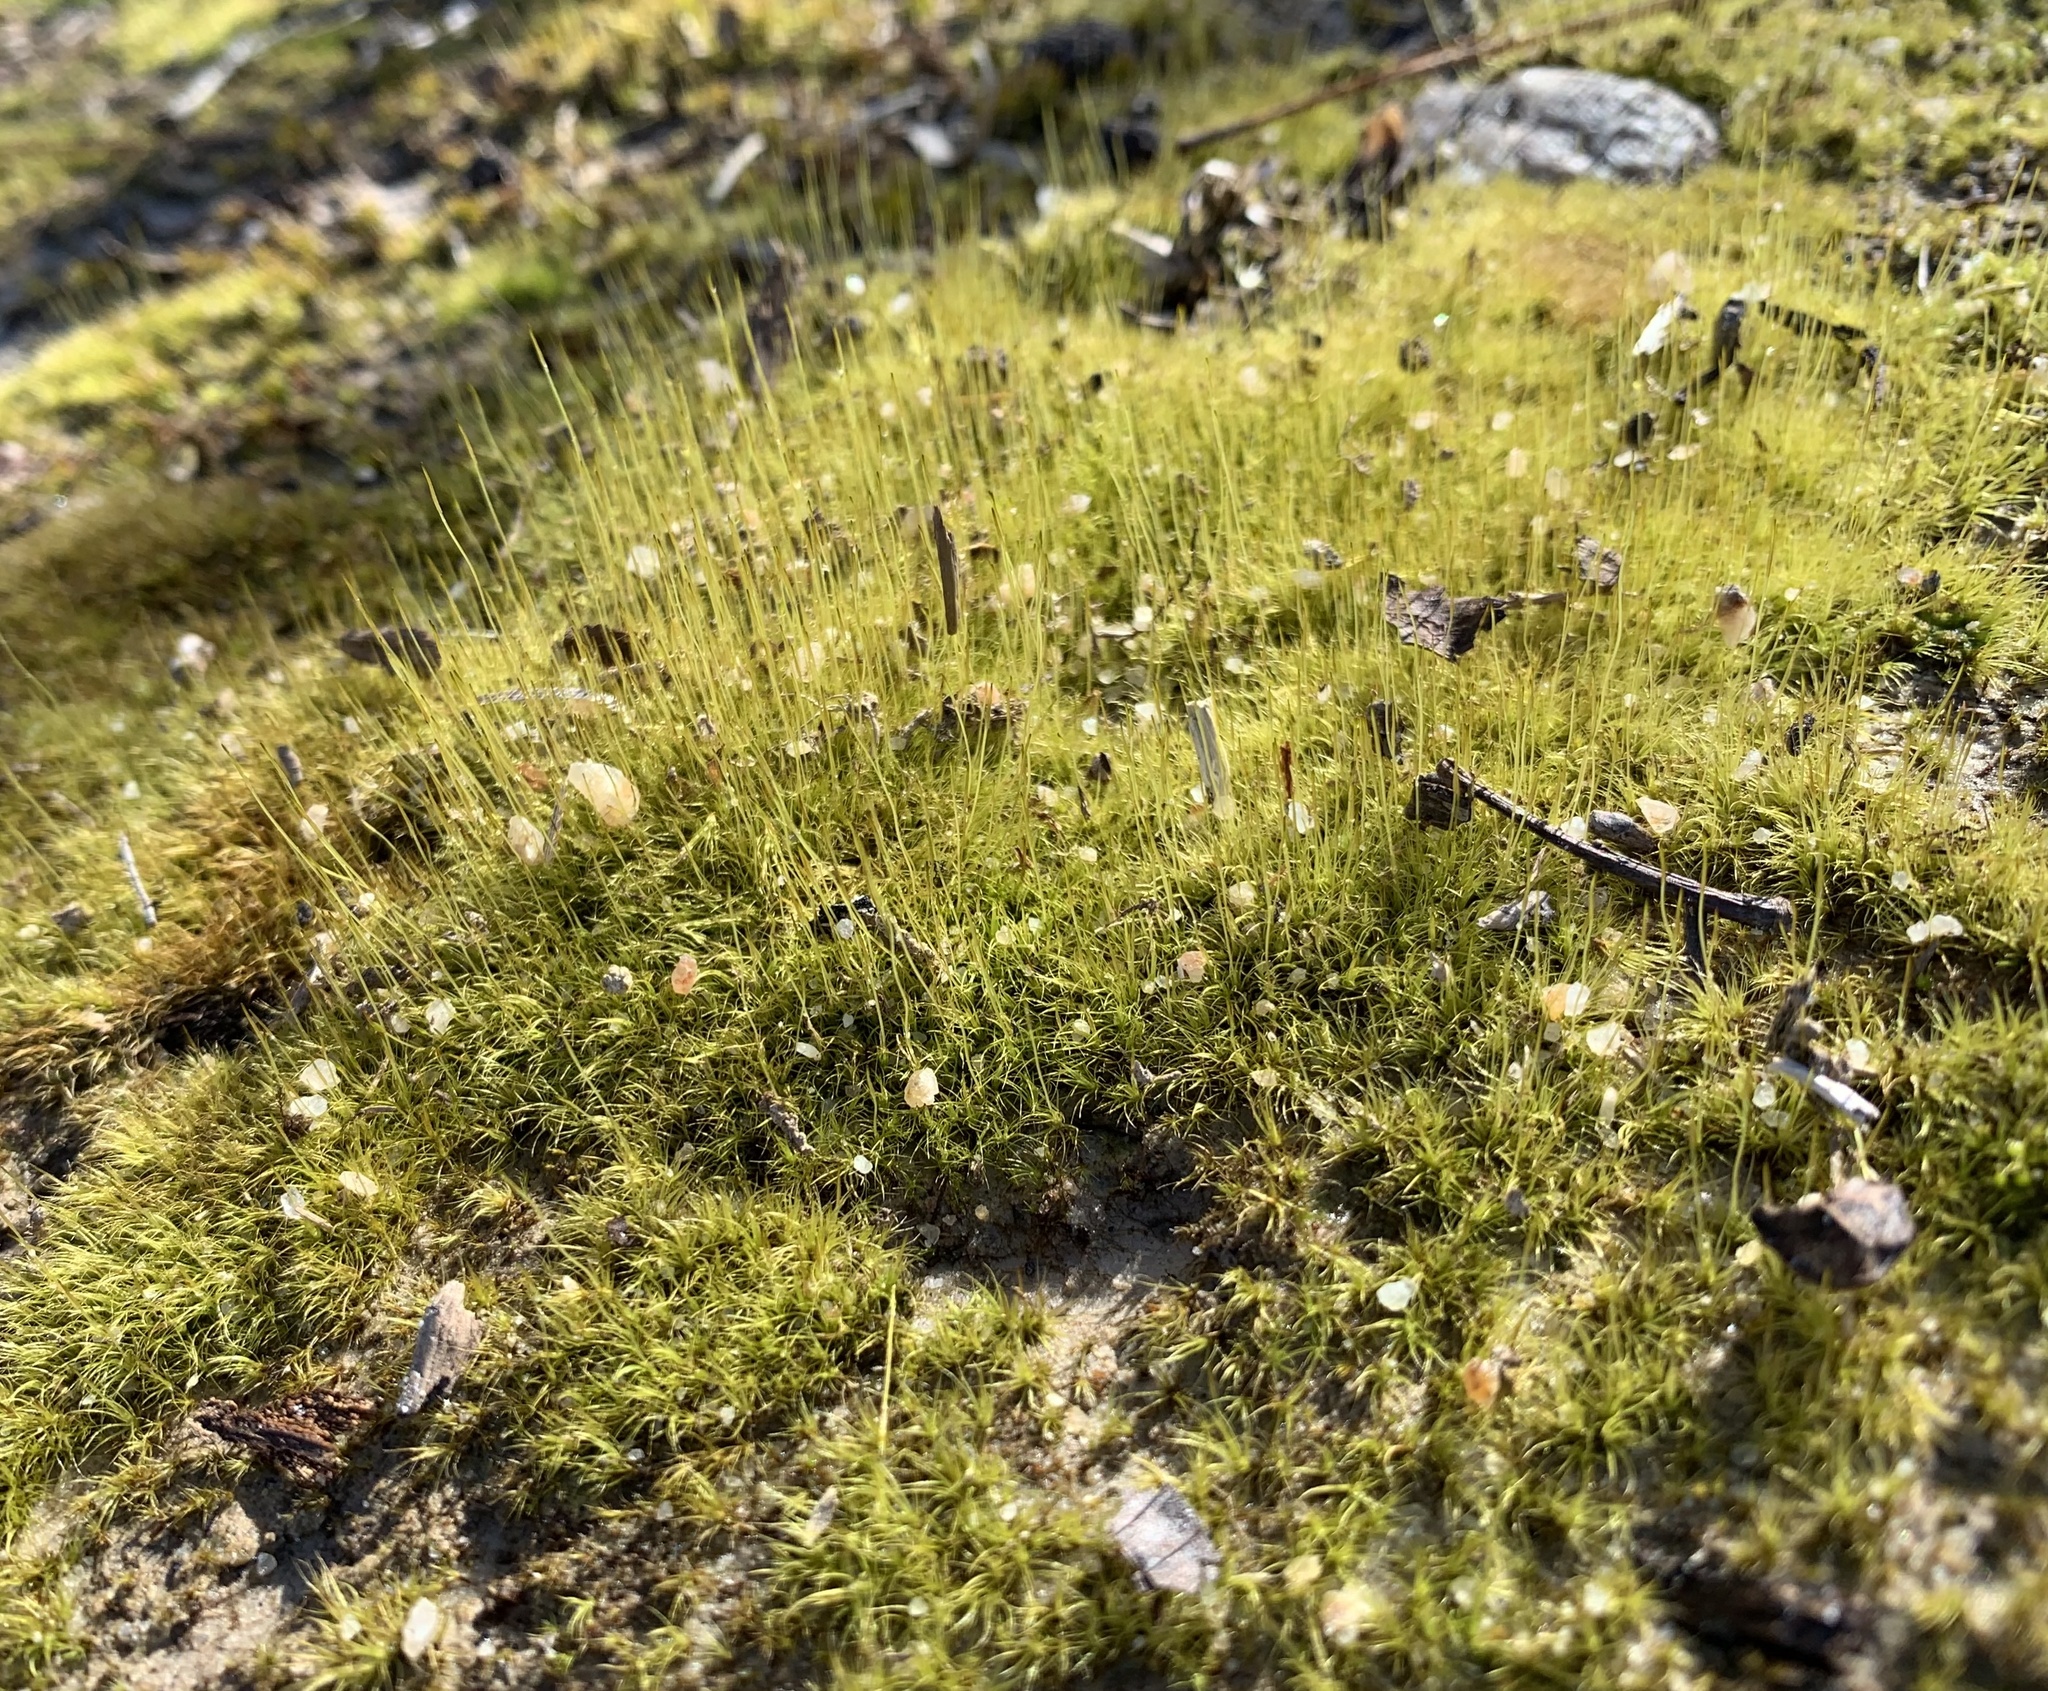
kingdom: Plantae
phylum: Bryophyta
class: Bryopsida
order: Dicranales
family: Dicranaceae
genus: Dicranum
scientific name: Dicranum scoparium
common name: Broom fork-moss
